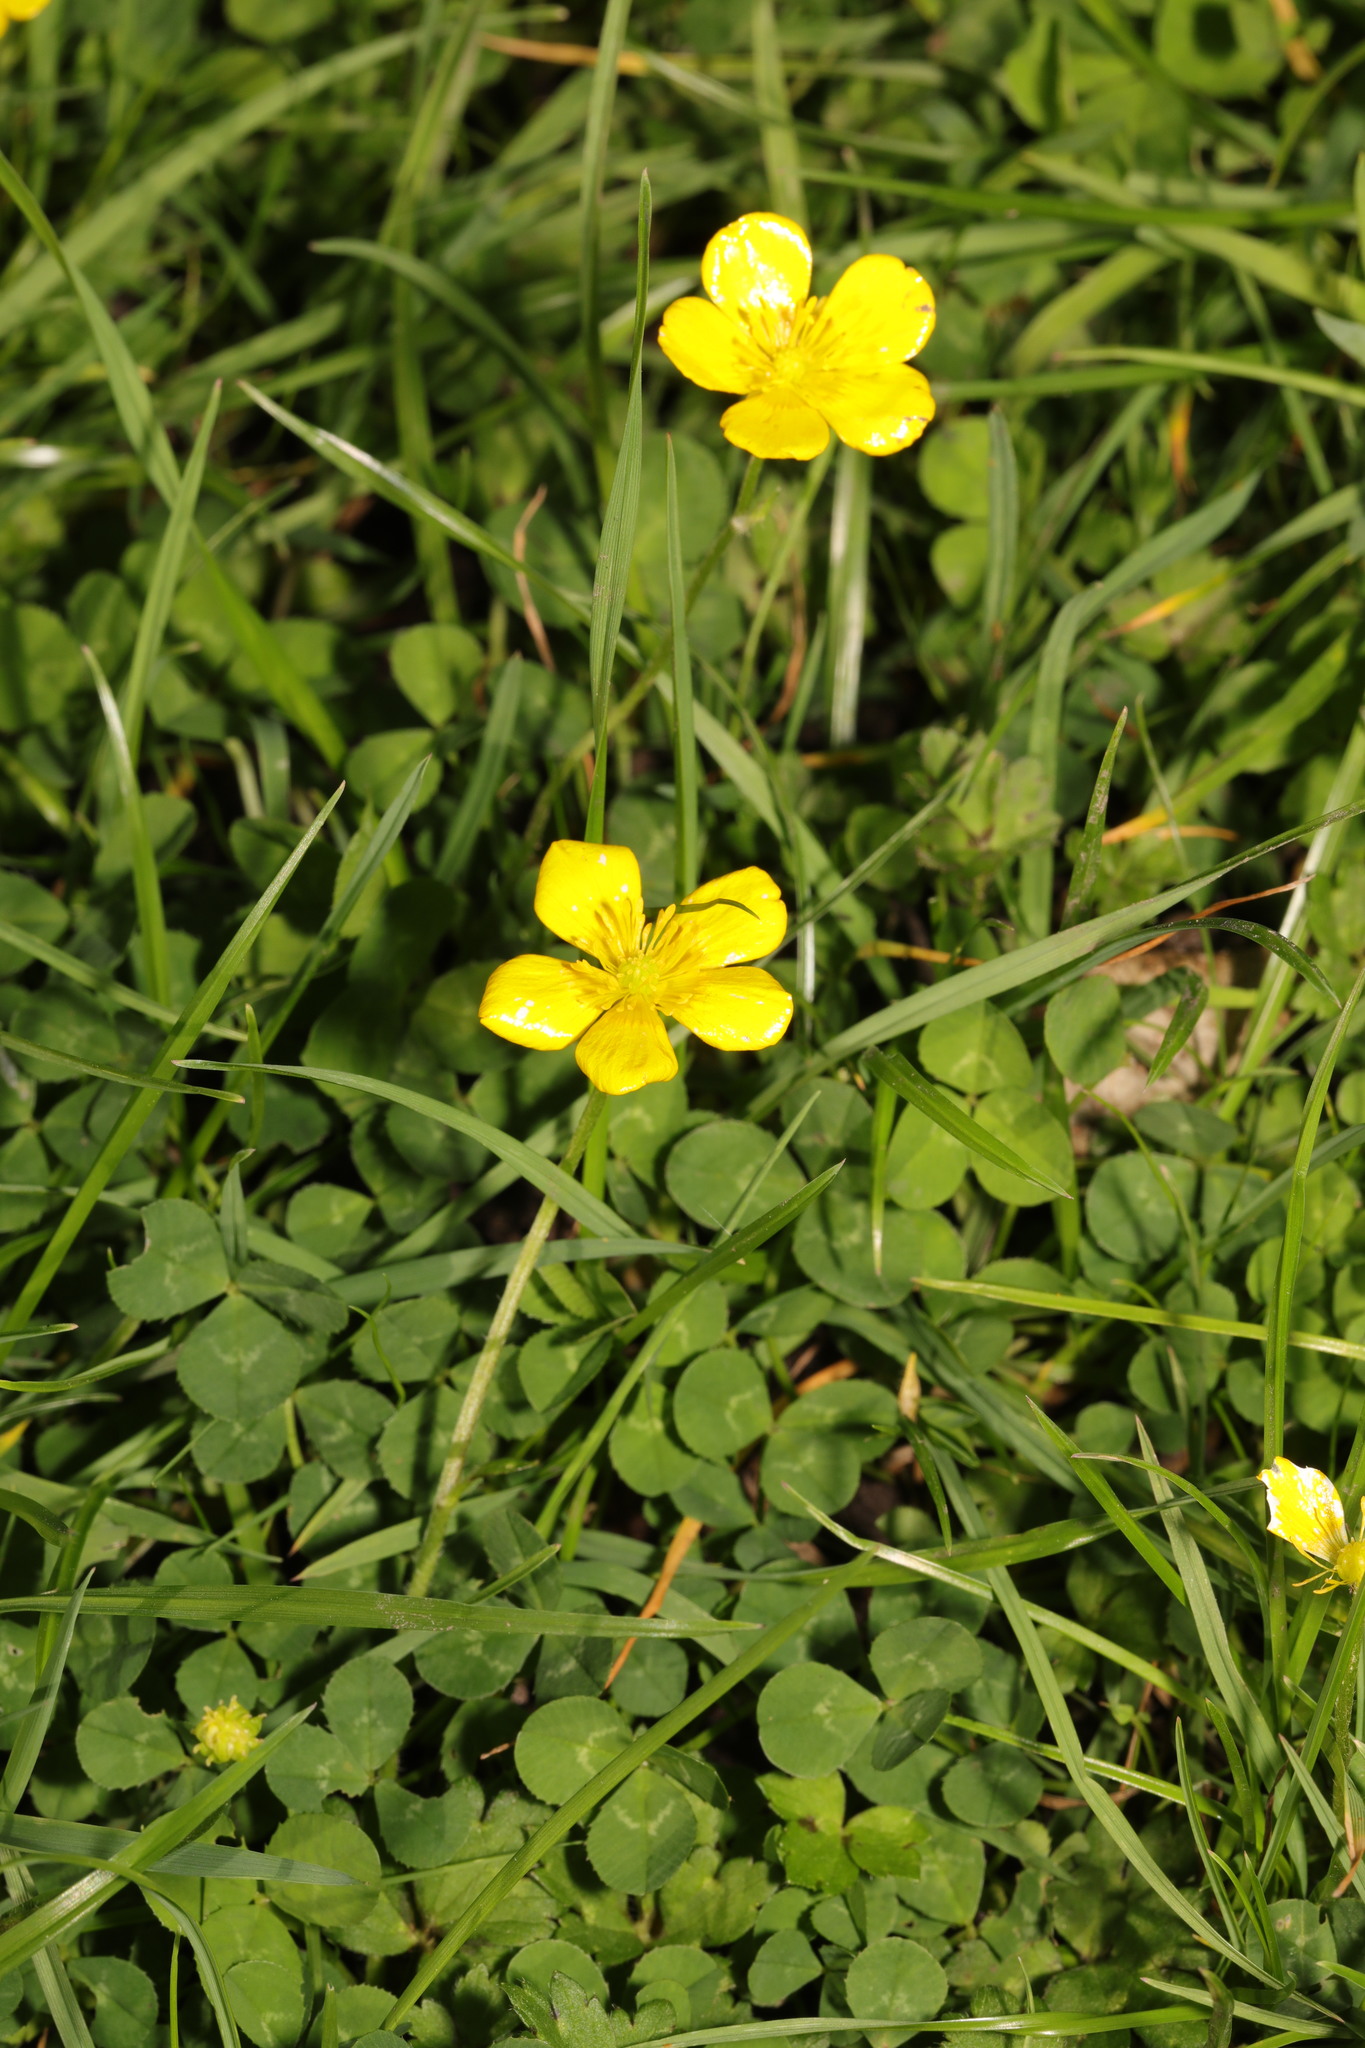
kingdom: Plantae
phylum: Tracheophyta
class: Magnoliopsida
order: Ranunculales
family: Ranunculaceae
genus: Ranunculus
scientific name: Ranunculus repens
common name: Creeping buttercup
